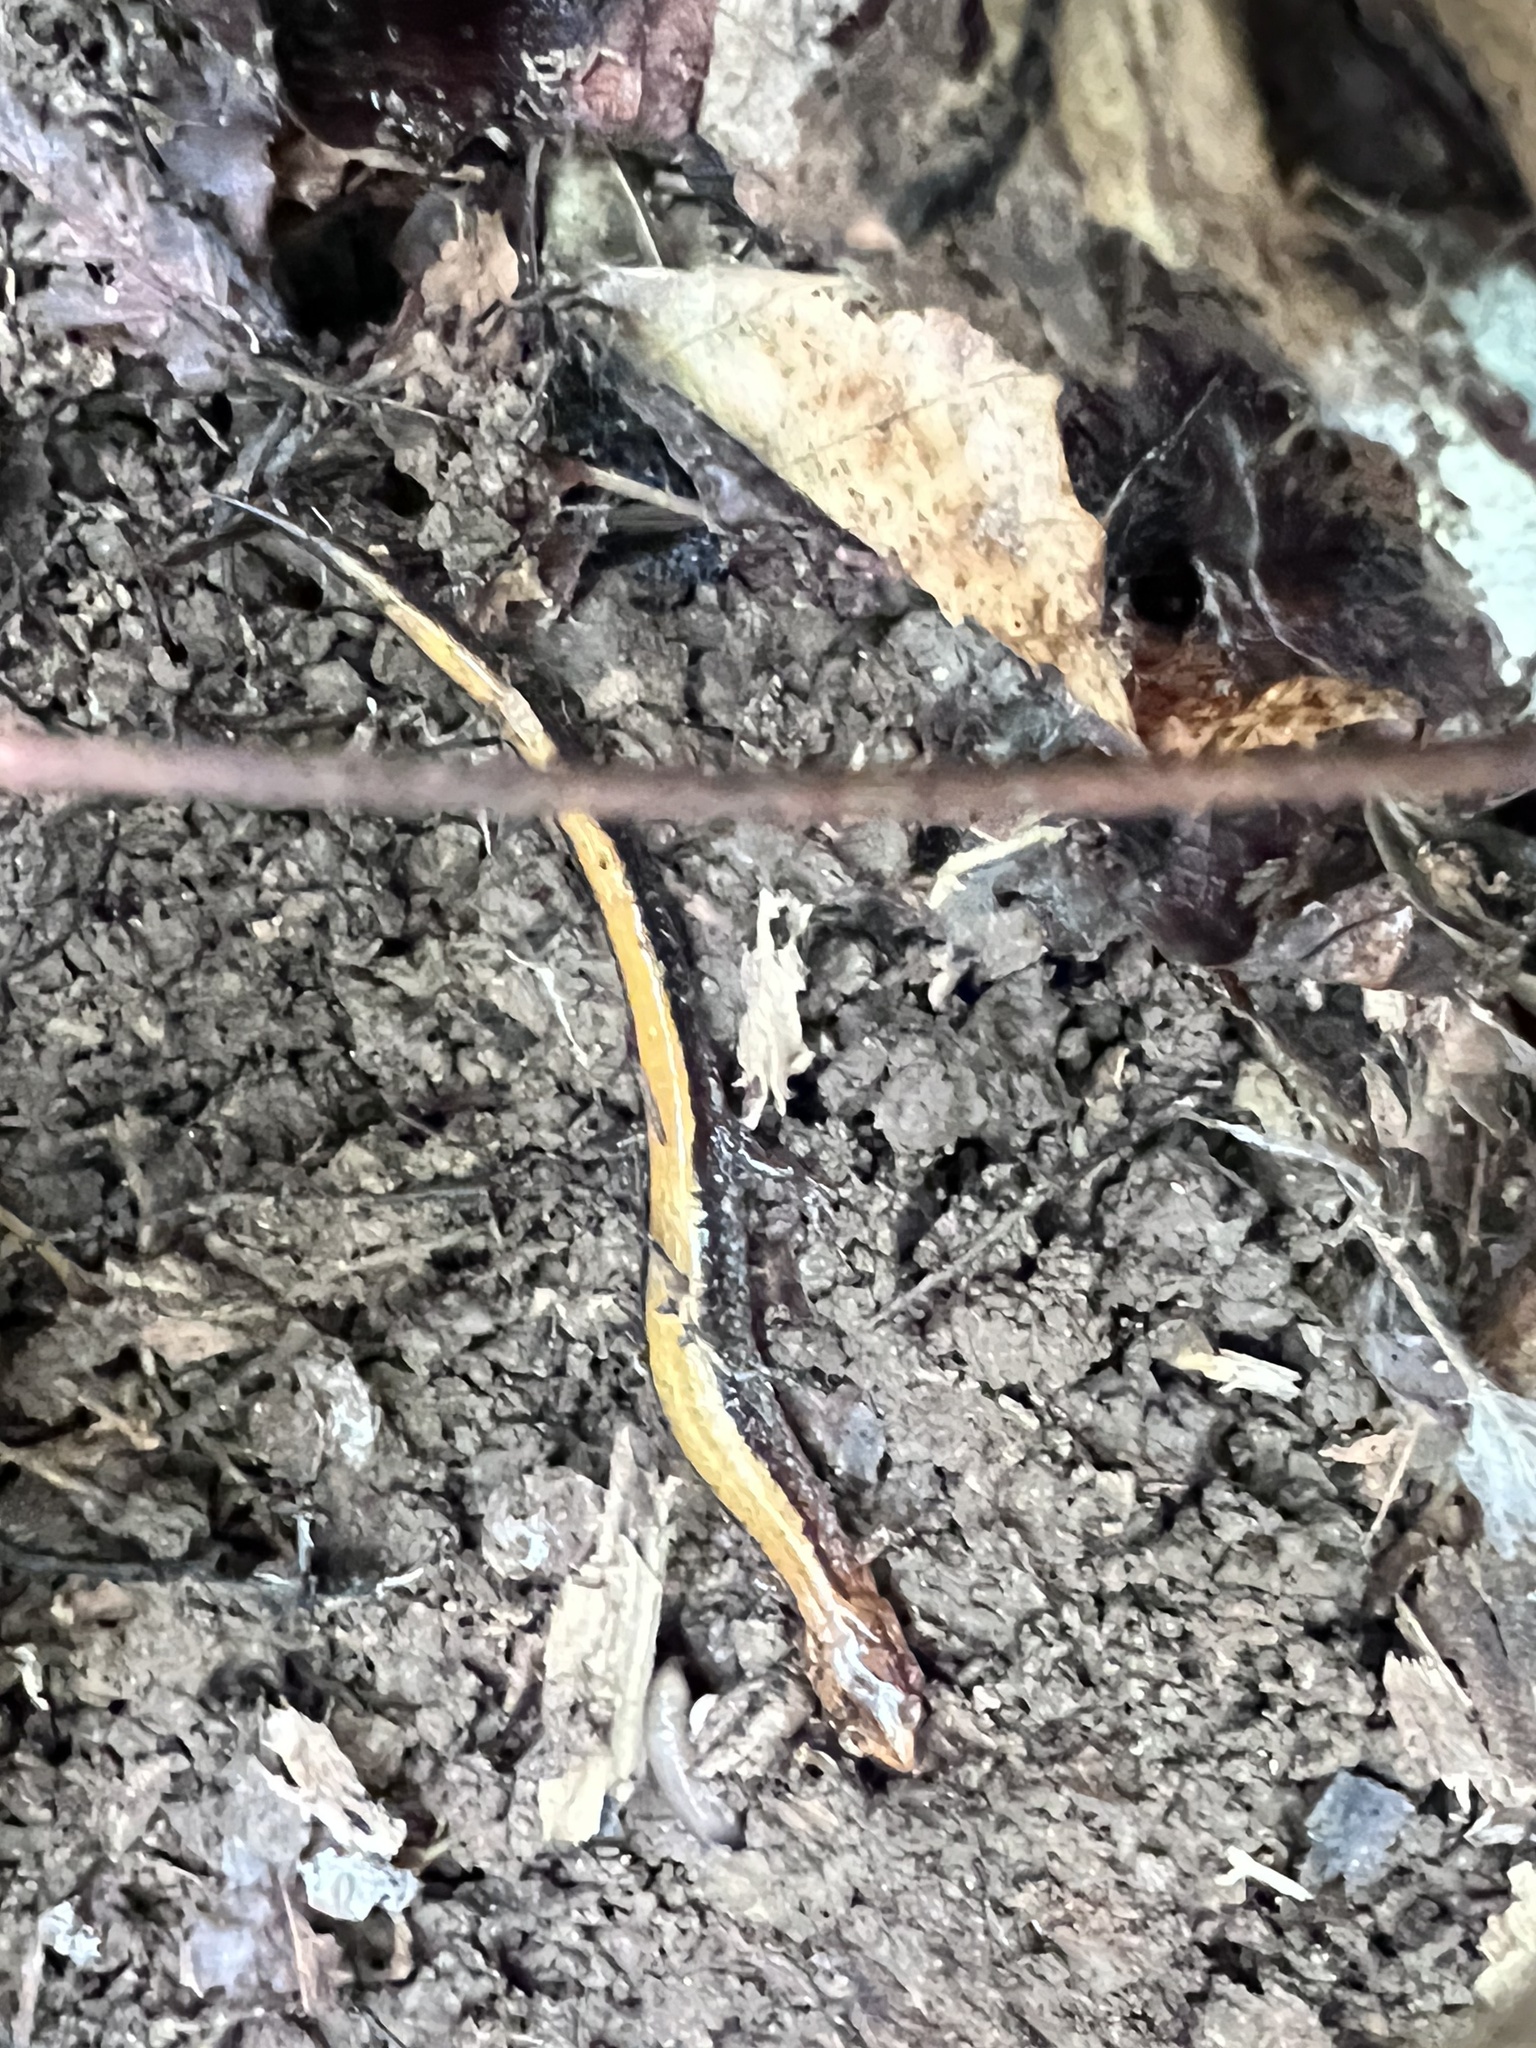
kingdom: Animalia
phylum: Chordata
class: Amphibia
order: Caudata
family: Plethodontidae
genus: Plethodon
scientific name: Plethodon cinereus
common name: Redback salamander
